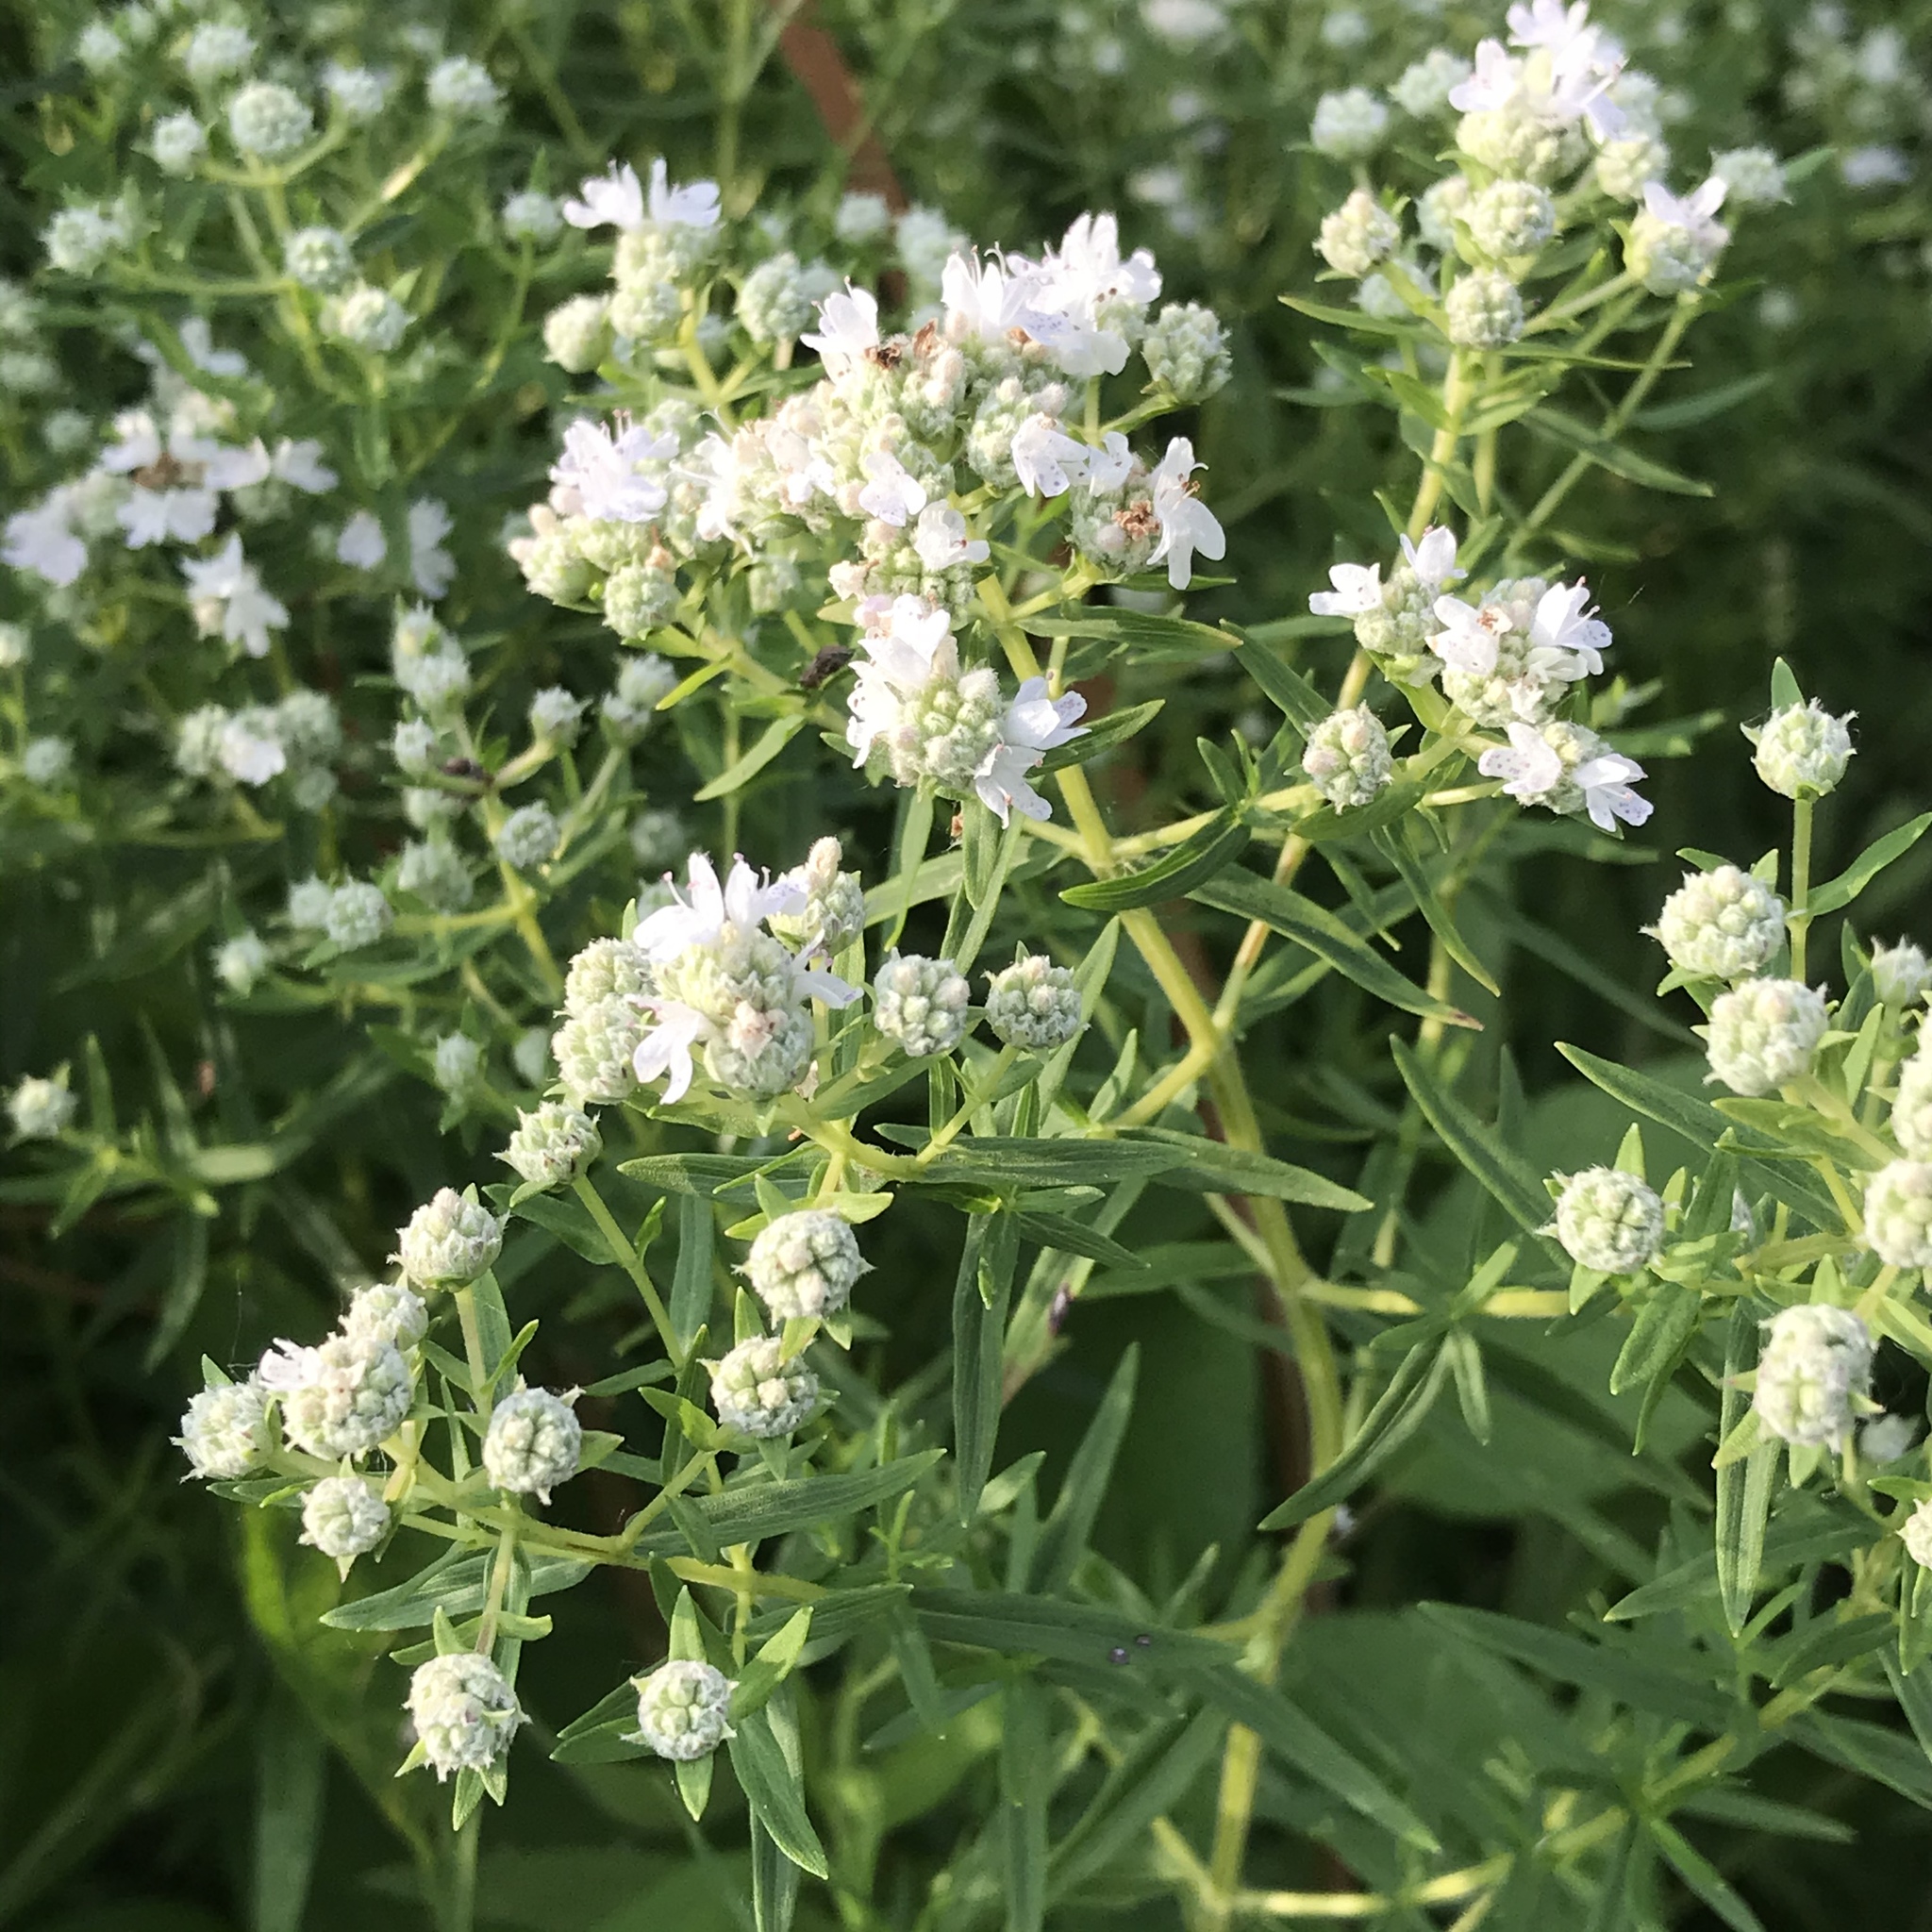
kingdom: Plantae
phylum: Tracheophyta
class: Magnoliopsida
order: Lamiales
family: Lamiaceae
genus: Pycnanthemum
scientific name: Pycnanthemum virginianum
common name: Virginia mountain-mint
